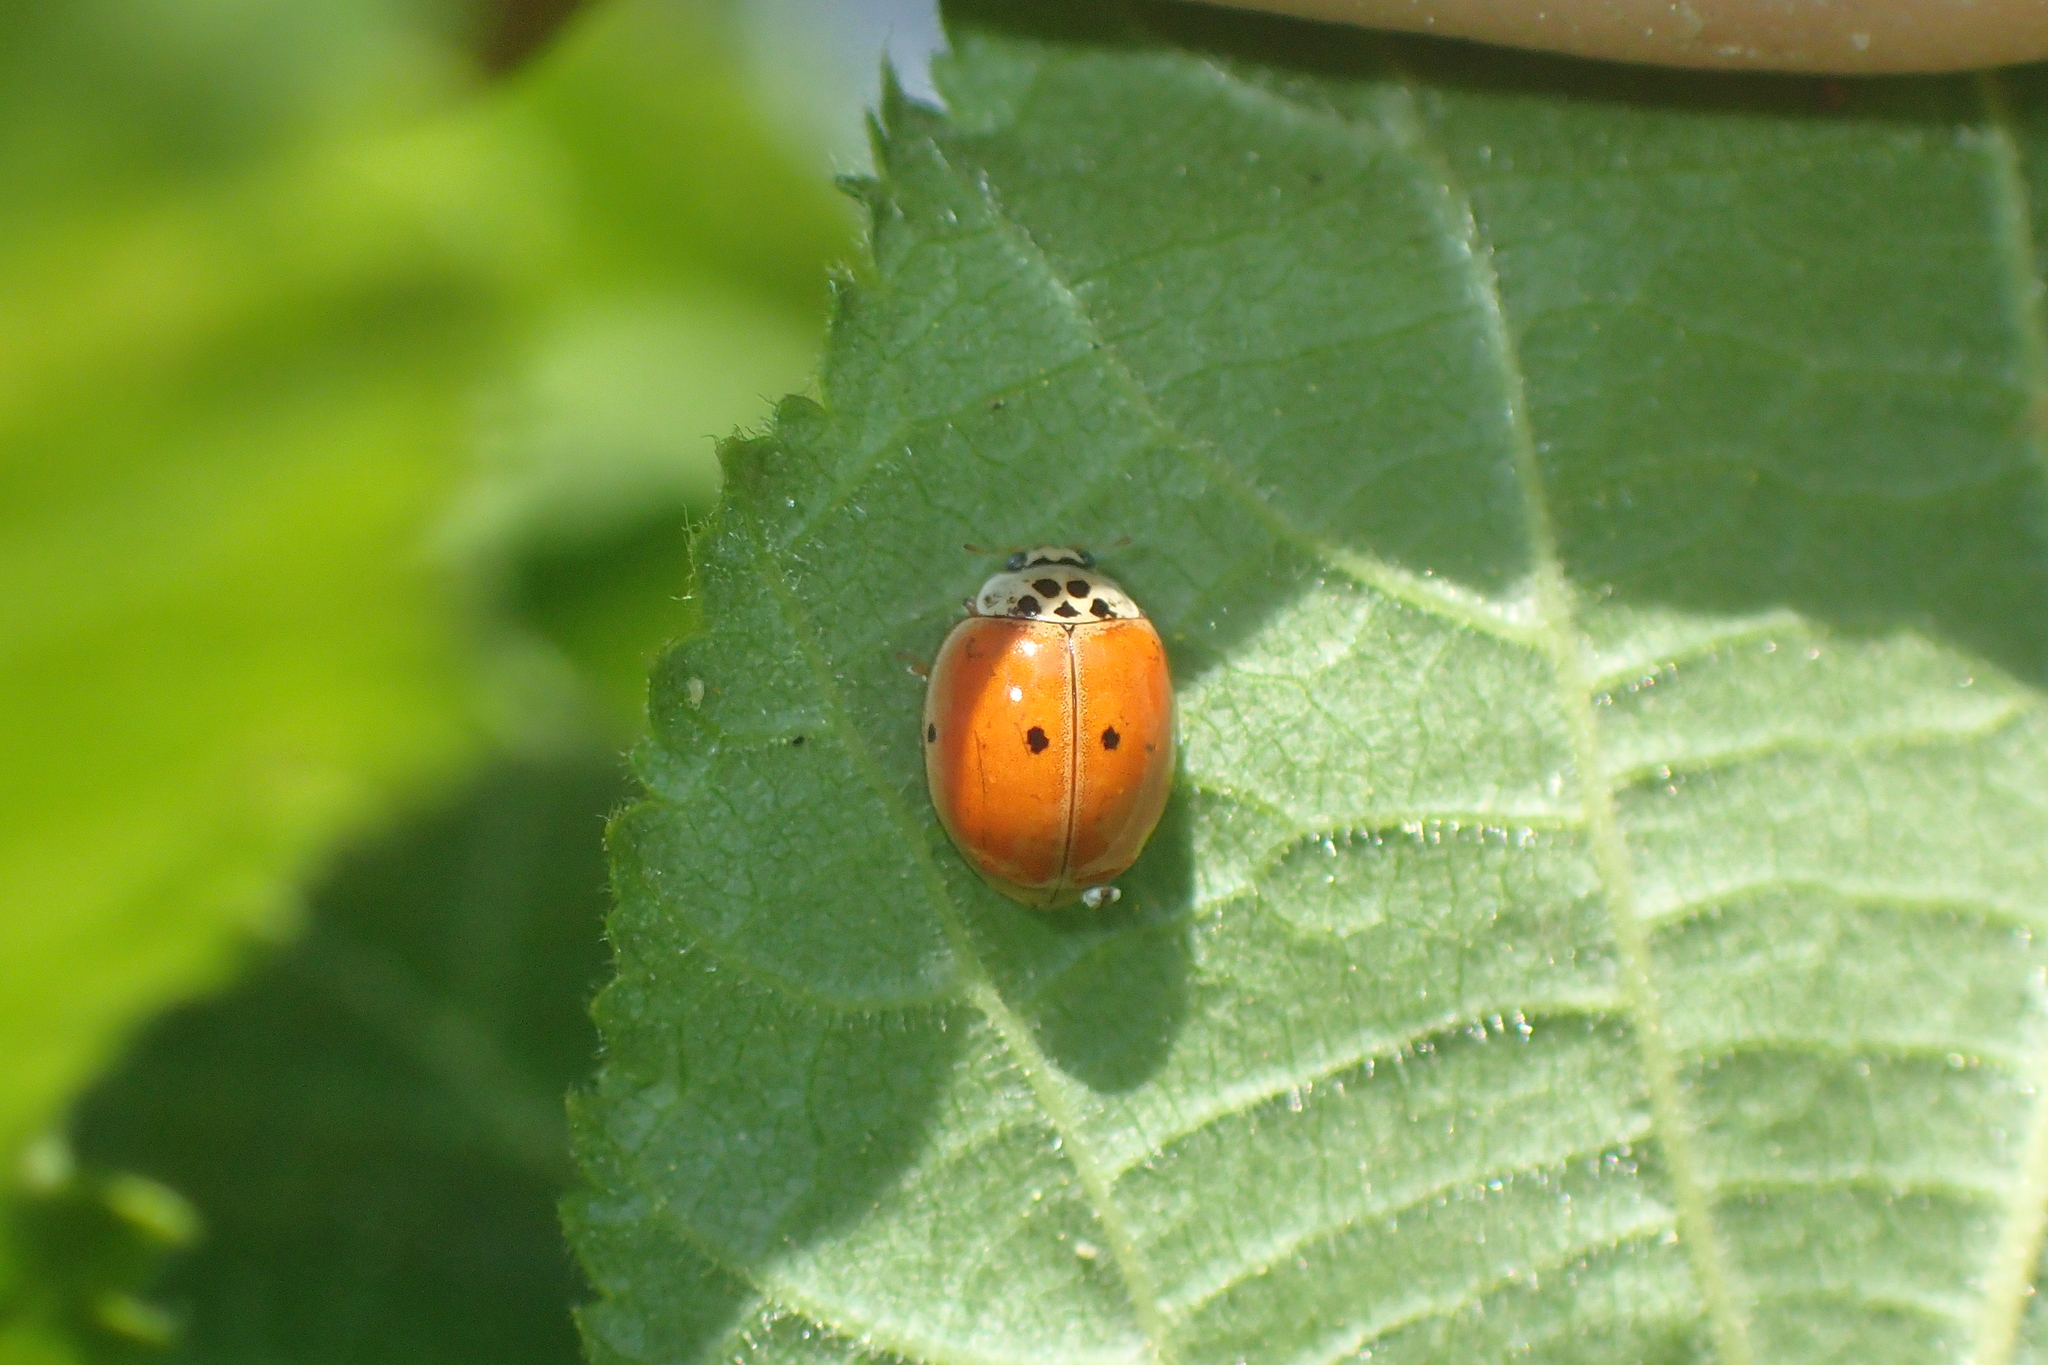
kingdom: Animalia
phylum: Arthropoda
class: Insecta
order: Coleoptera
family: Coccinellidae
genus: Adalia
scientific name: Adalia decempunctata
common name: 10-spot ladybird
